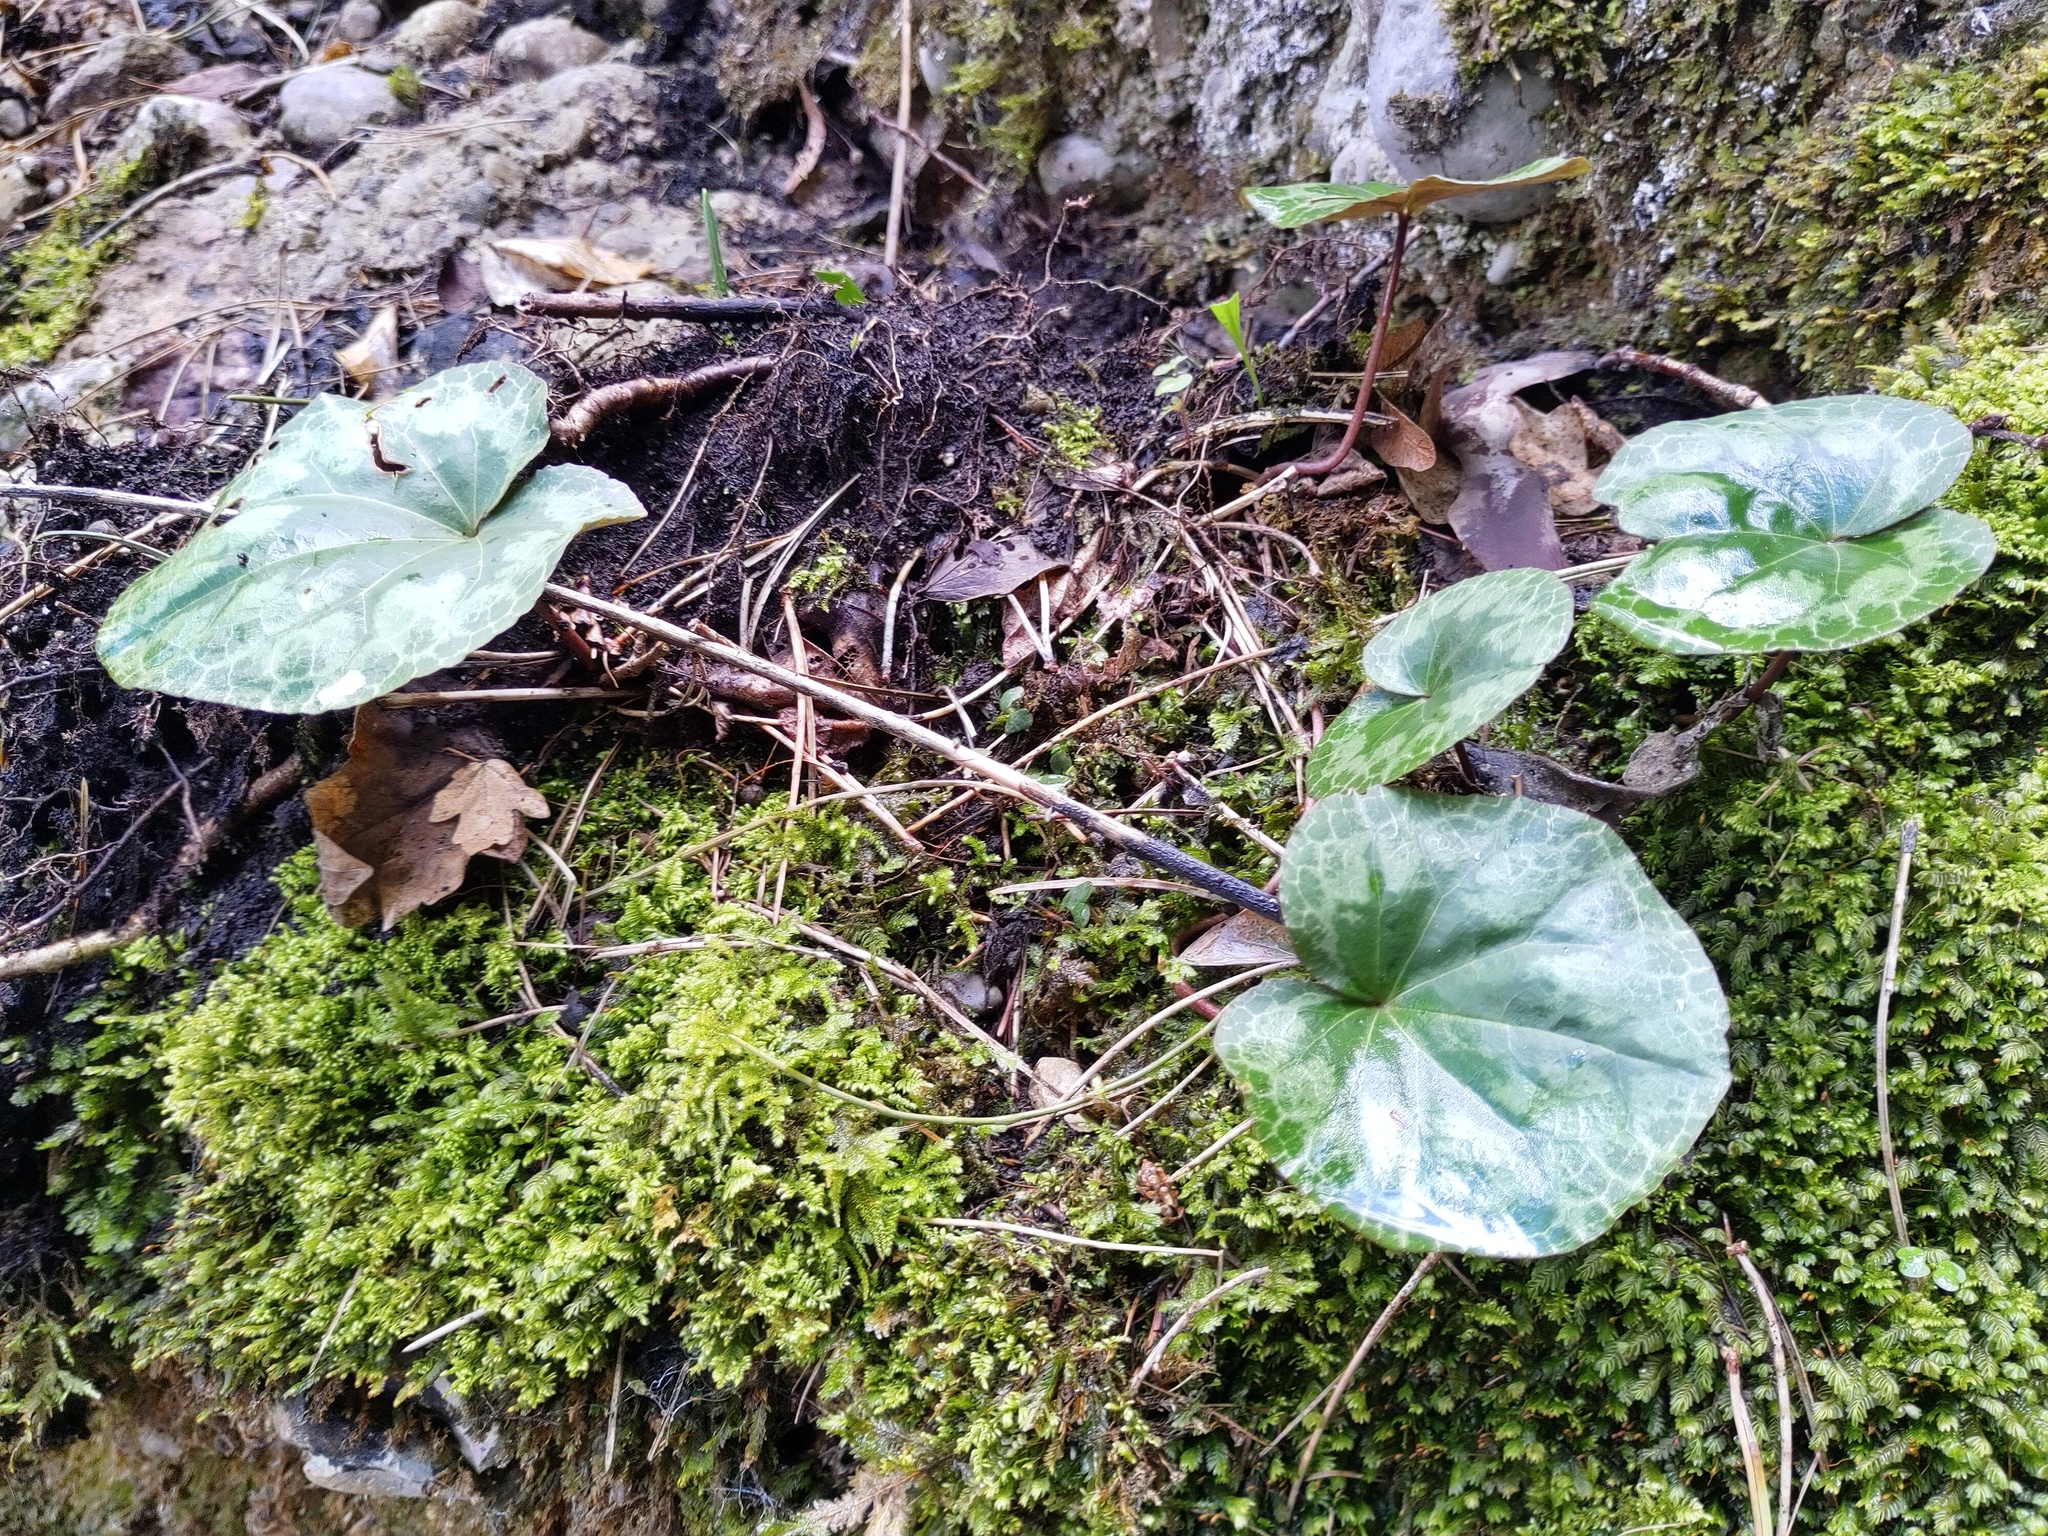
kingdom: Plantae
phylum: Tracheophyta
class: Magnoliopsida
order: Ericales
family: Primulaceae
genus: Cyclamen
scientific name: Cyclamen purpurascens
